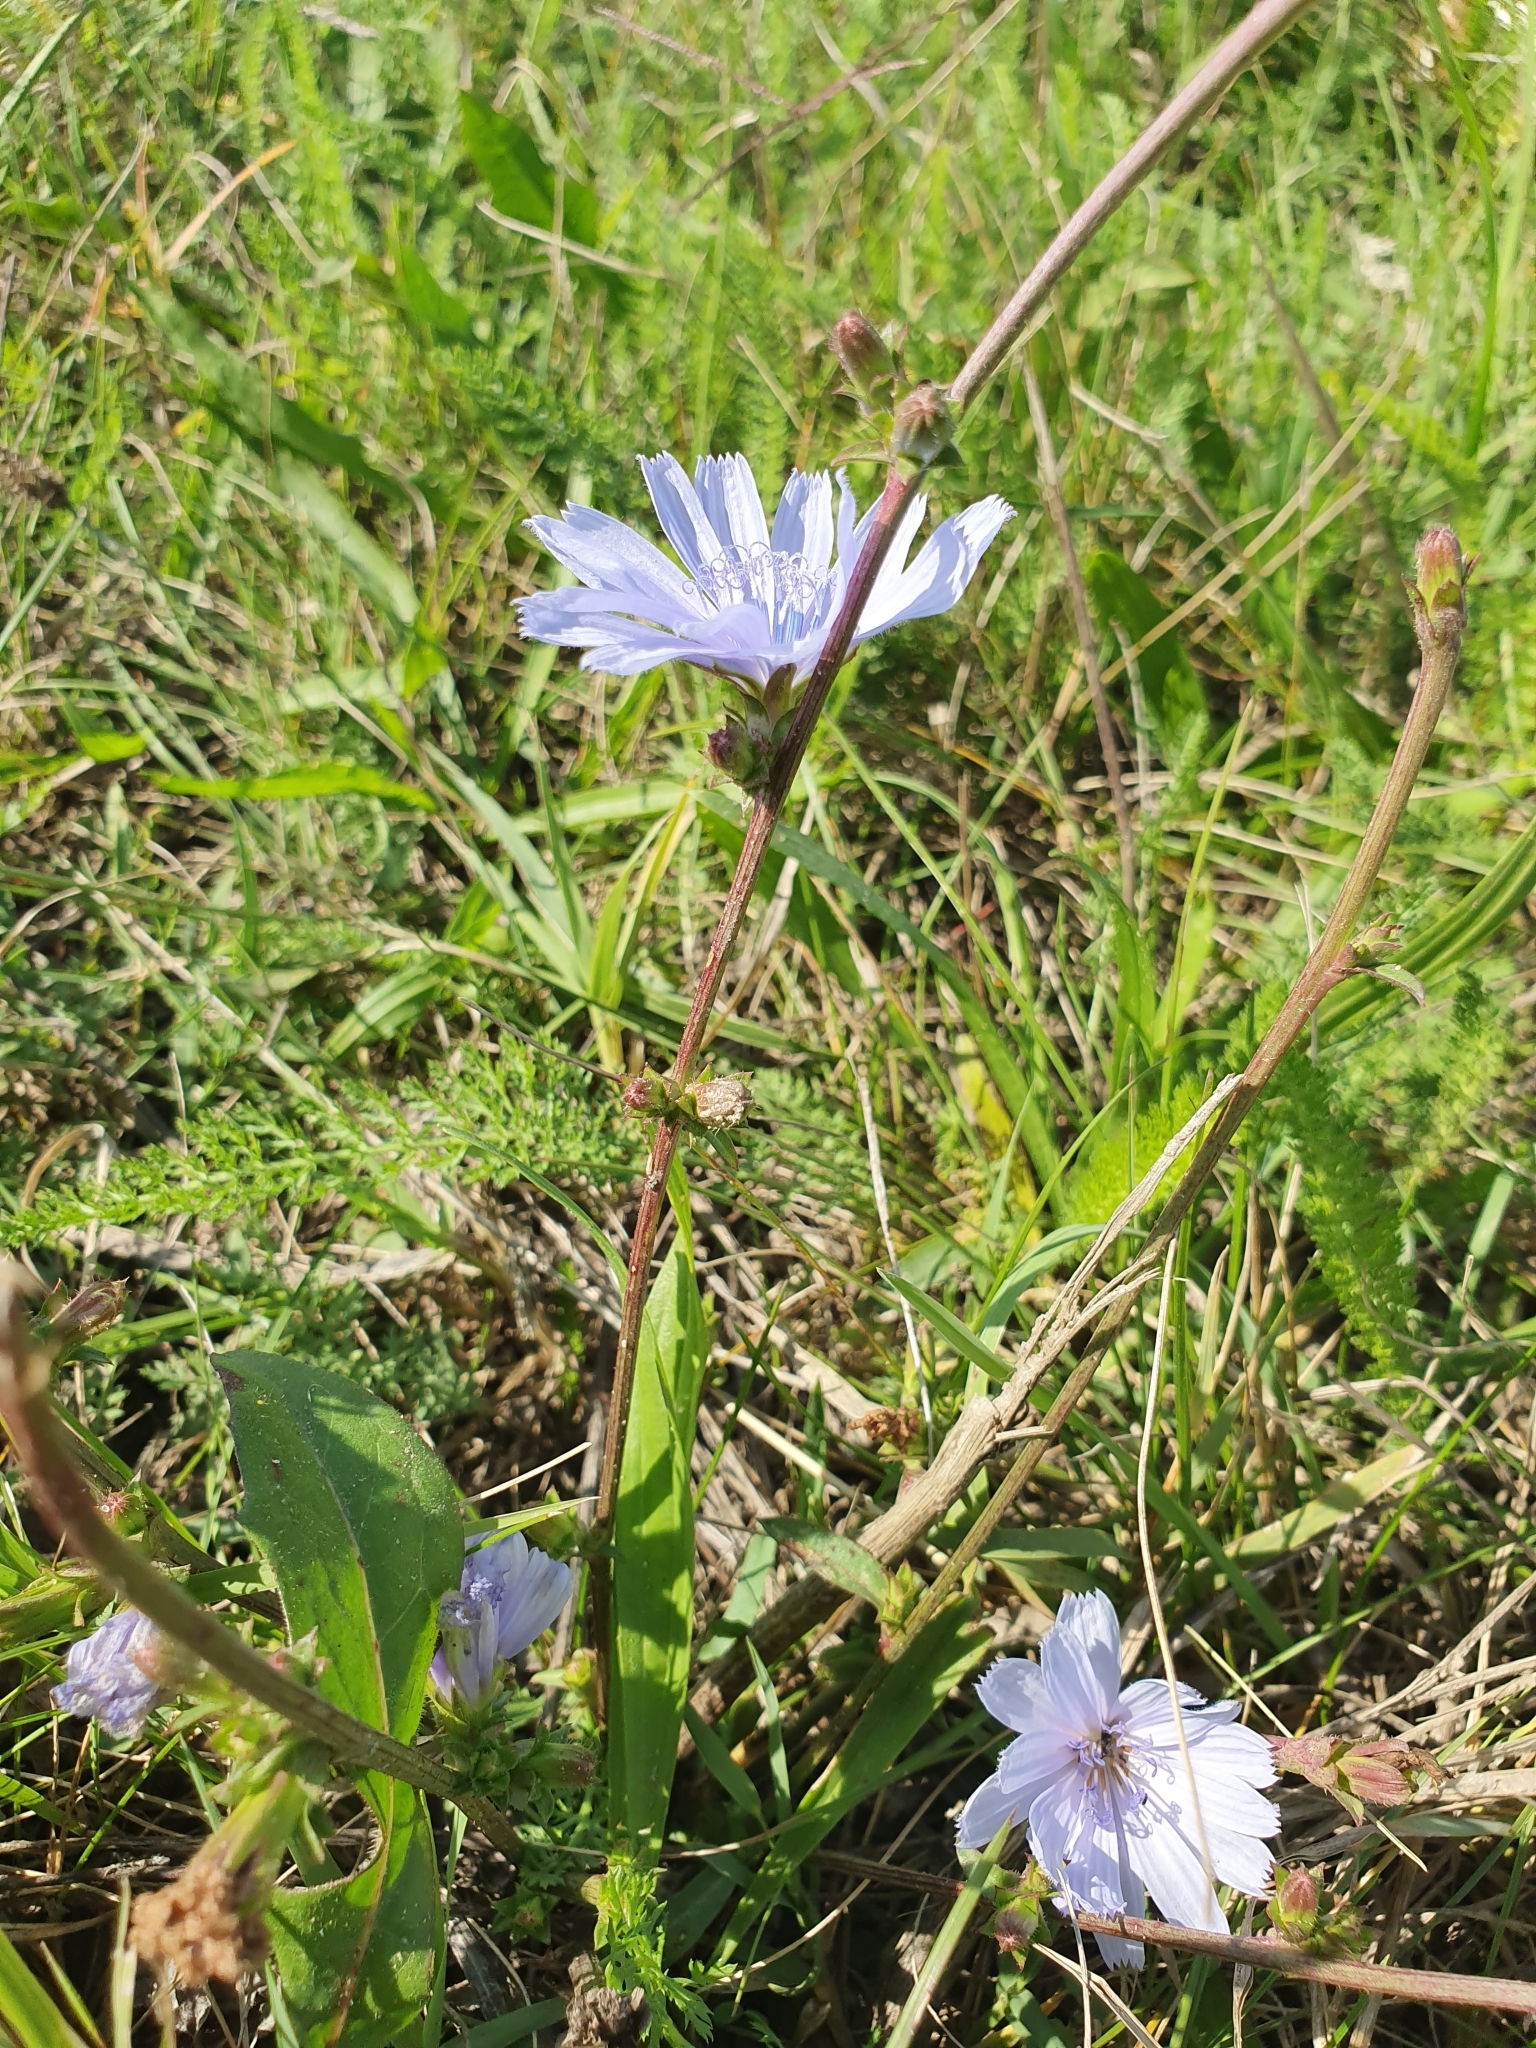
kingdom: Plantae
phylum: Tracheophyta
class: Magnoliopsida
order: Asterales
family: Asteraceae
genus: Cichorium
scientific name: Cichorium intybus
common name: Chicory
